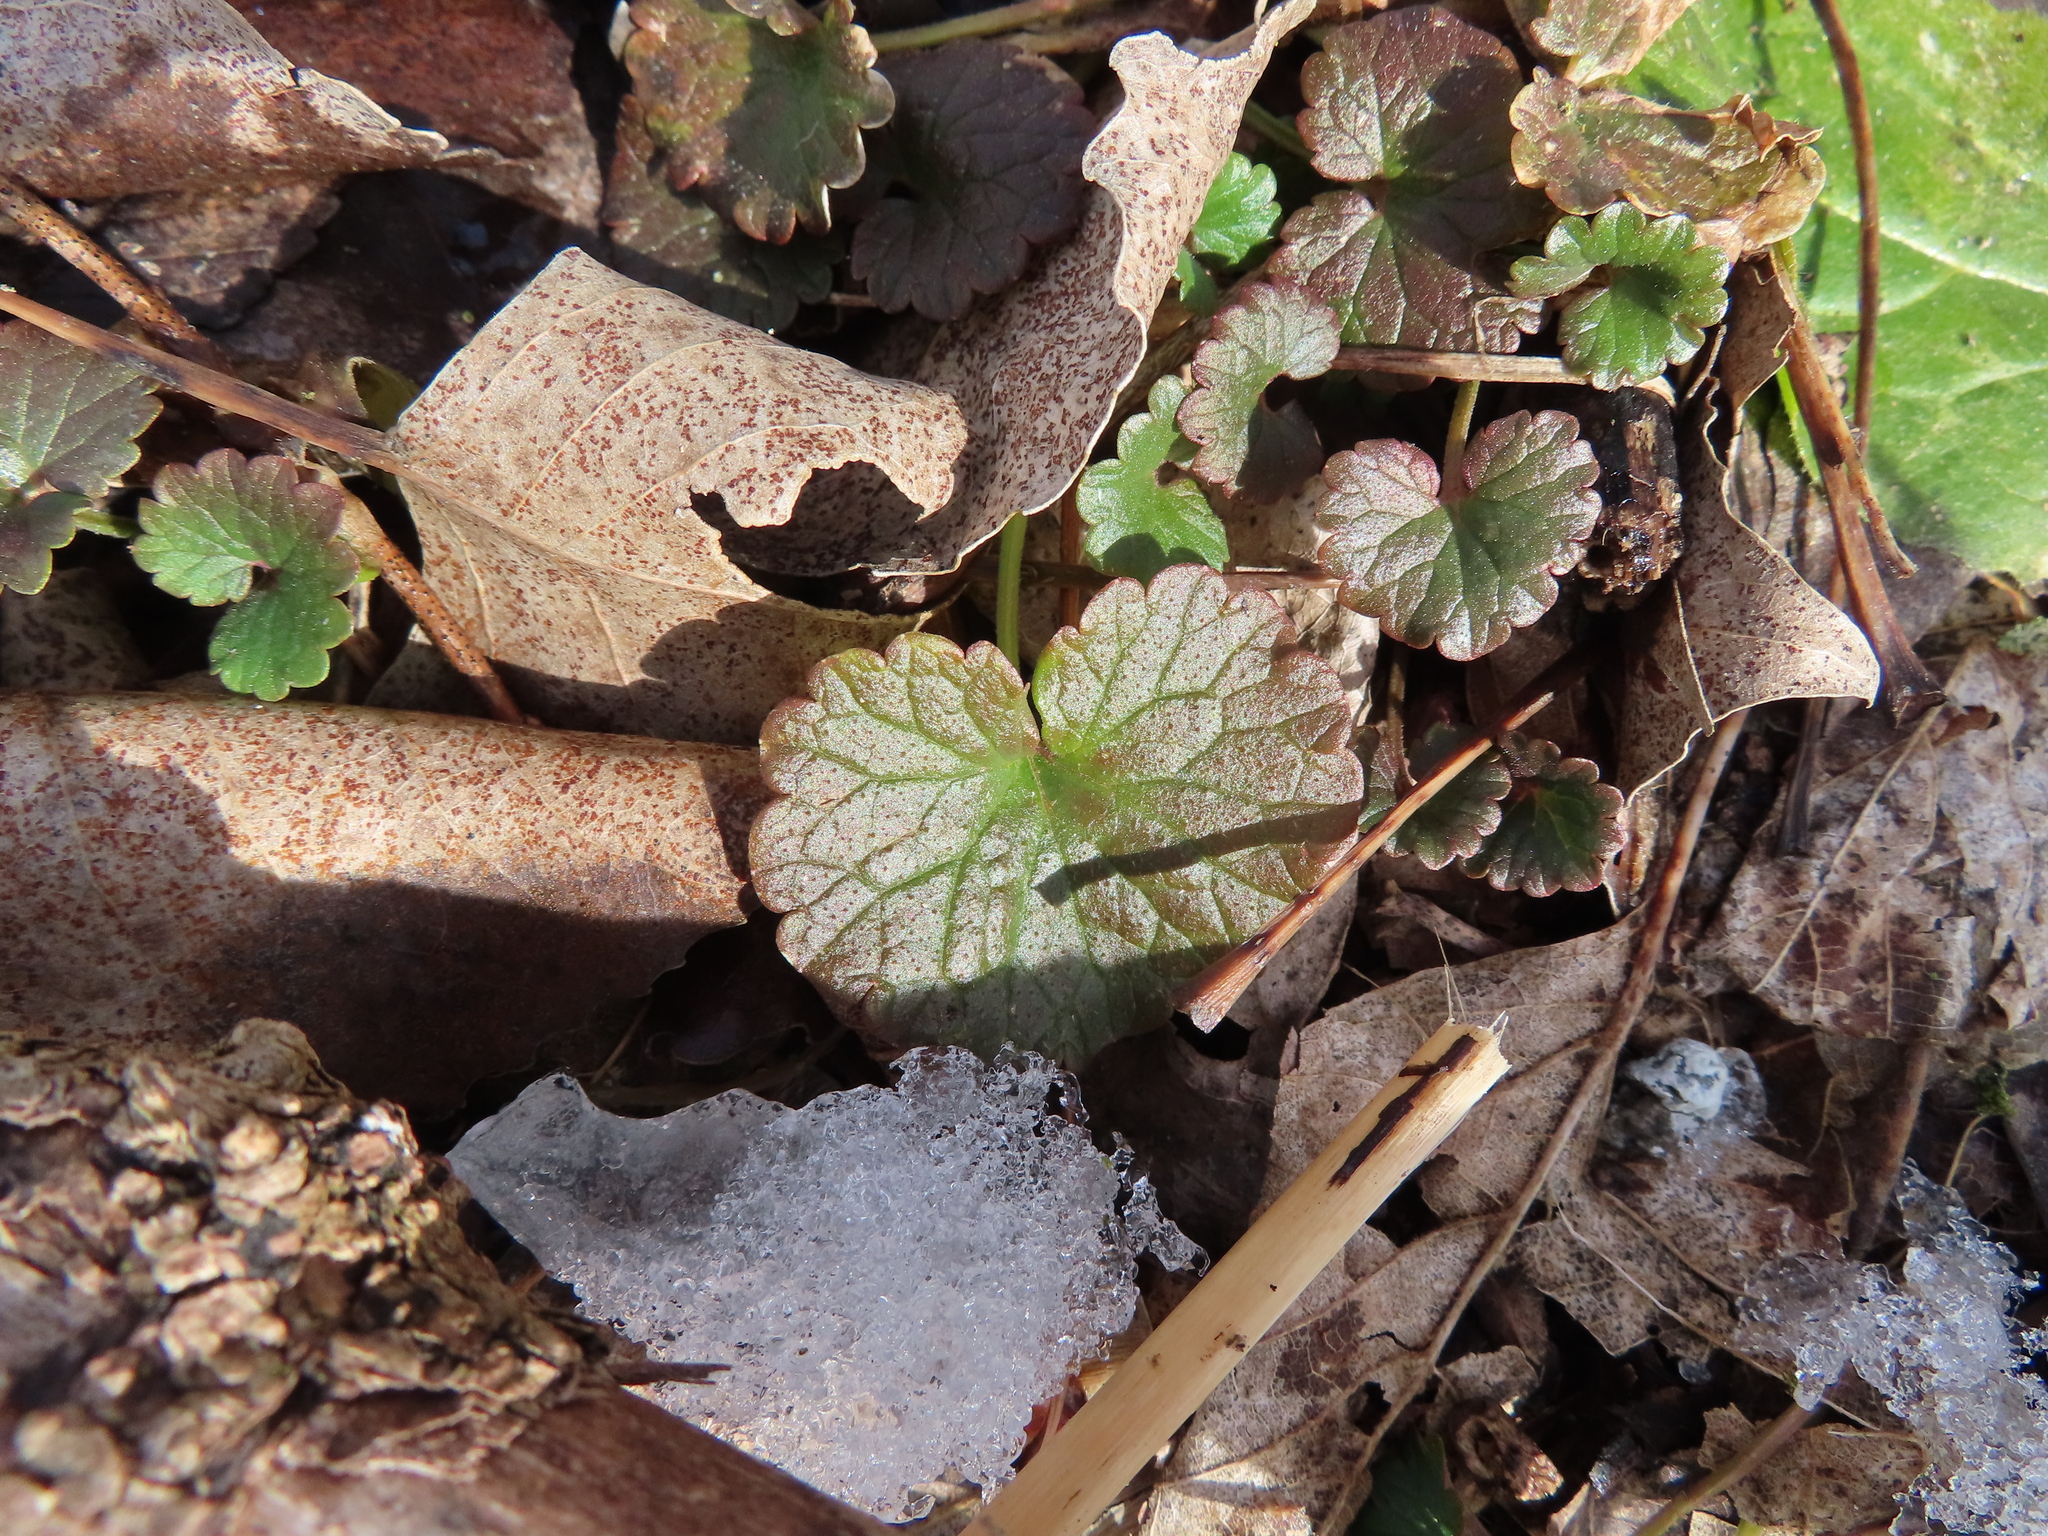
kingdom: Plantae
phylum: Tracheophyta
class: Magnoliopsida
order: Lamiales
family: Lamiaceae
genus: Glechoma
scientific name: Glechoma hederacea
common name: Ground ivy
